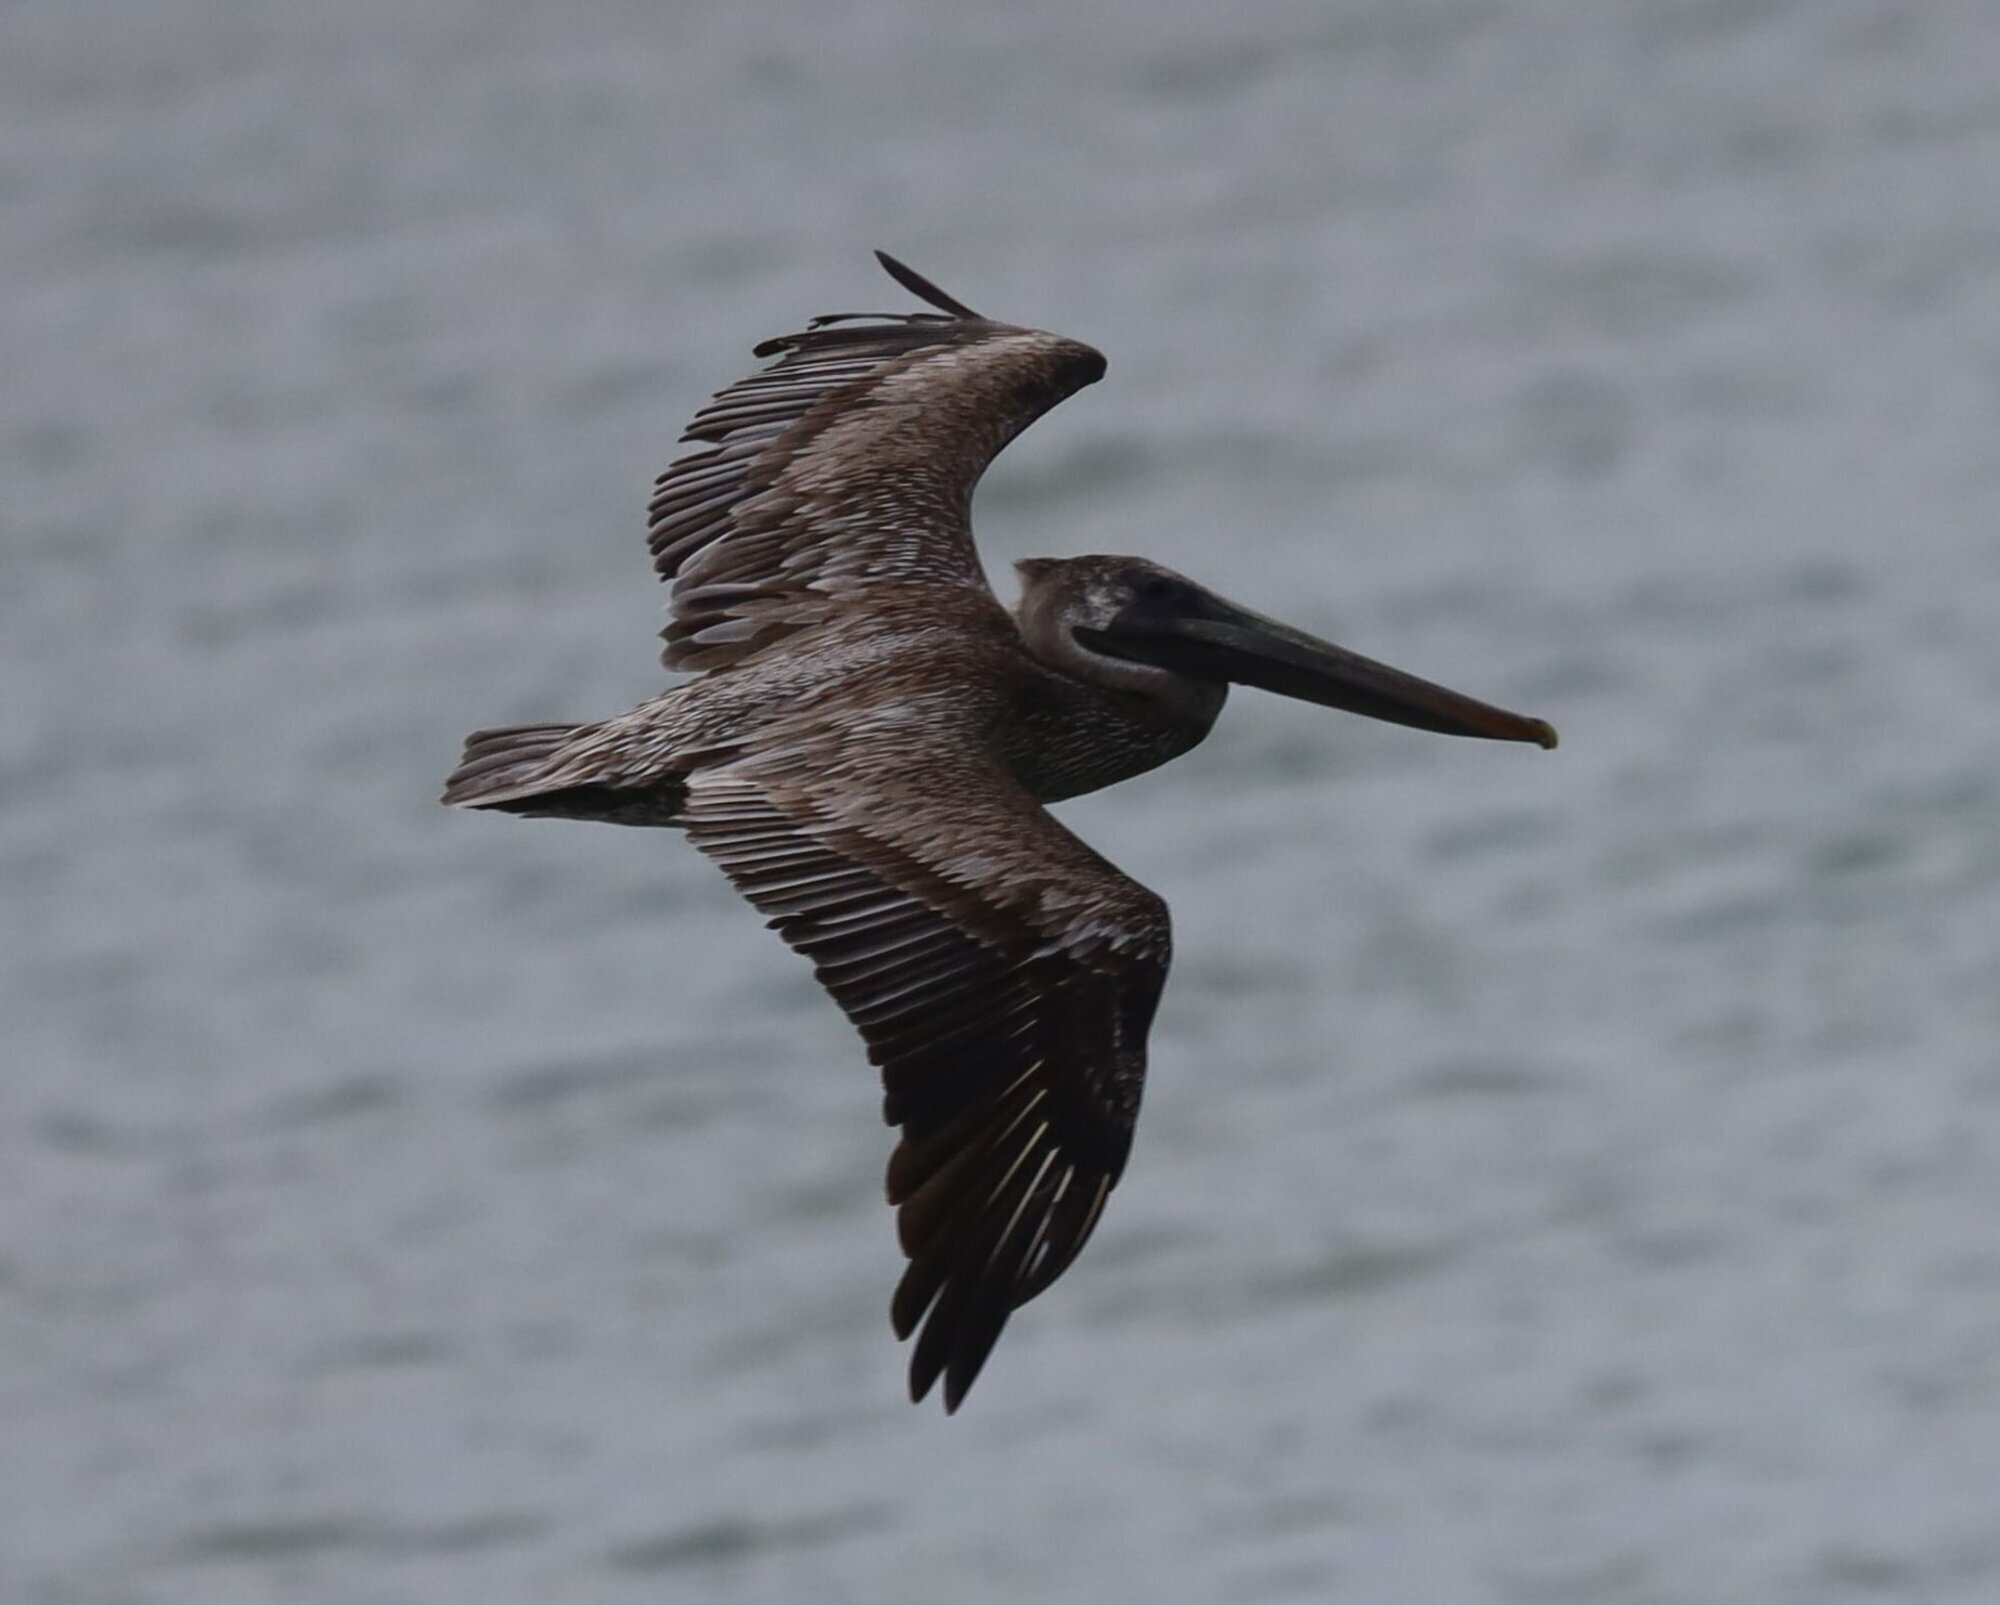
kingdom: Animalia
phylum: Chordata
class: Aves
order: Pelecaniformes
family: Pelecanidae
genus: Pelecanus
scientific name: Pelecanus occidentalis
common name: Brown pelican
